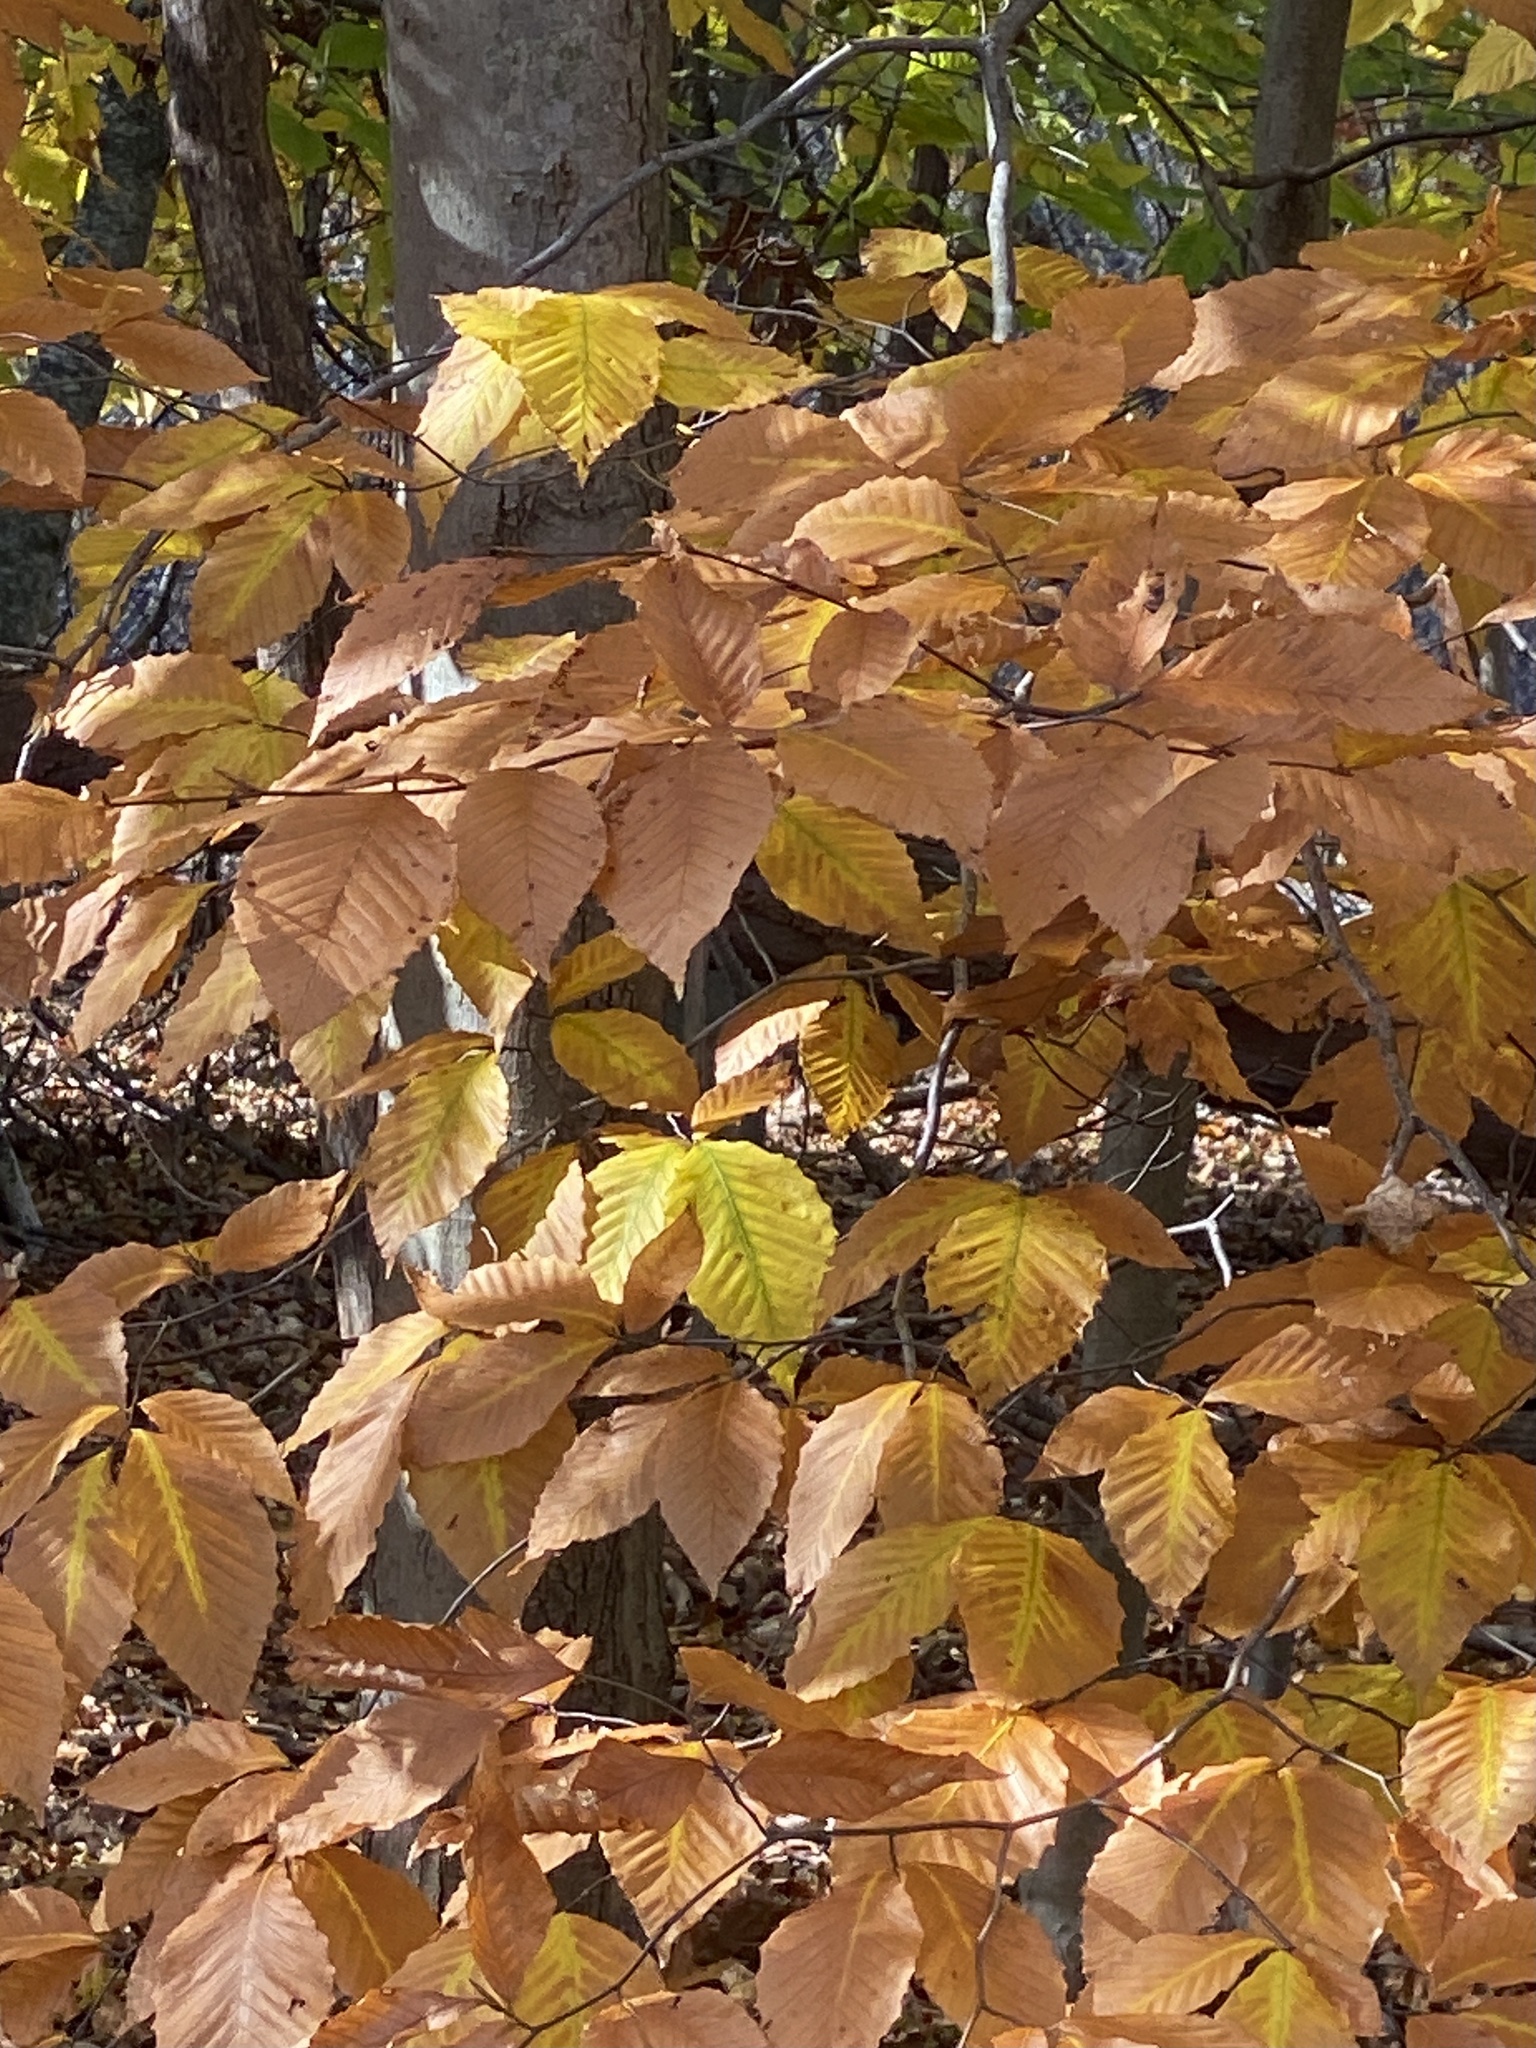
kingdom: Plantae
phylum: Tracheophyta
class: Magnoliopsida
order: Fagales
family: Fagaceae
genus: Fagus
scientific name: Fagus grandifolia
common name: American beech
